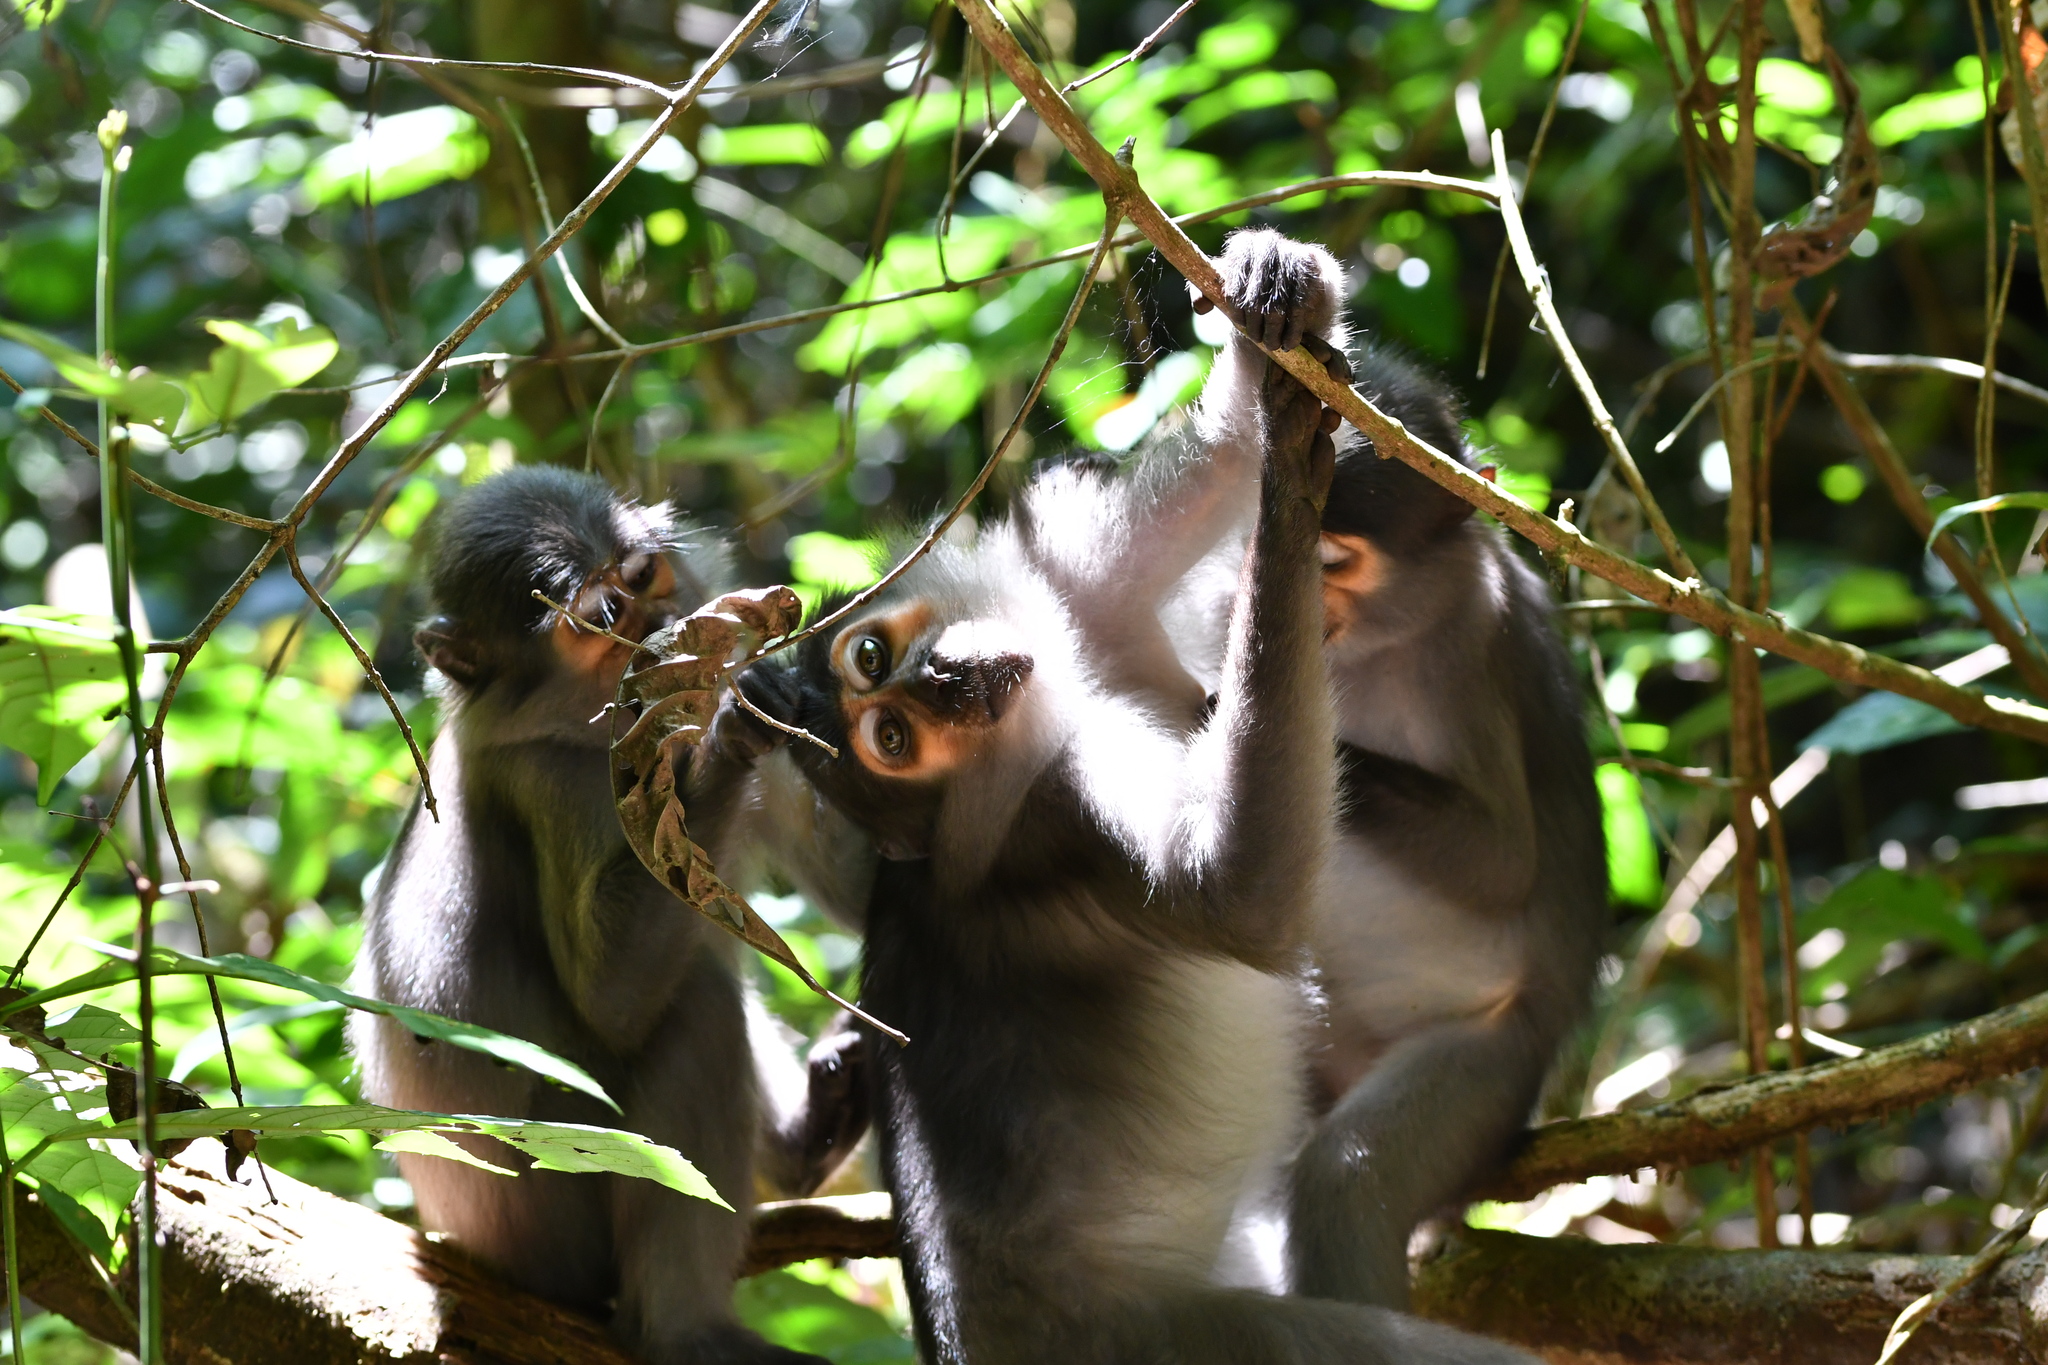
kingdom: Animalia
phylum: Chordata
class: Mammalia
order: Primates
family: Cercopithecidae
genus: Cercocebus
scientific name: Cercocebus atys
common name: Sooty mangabey
